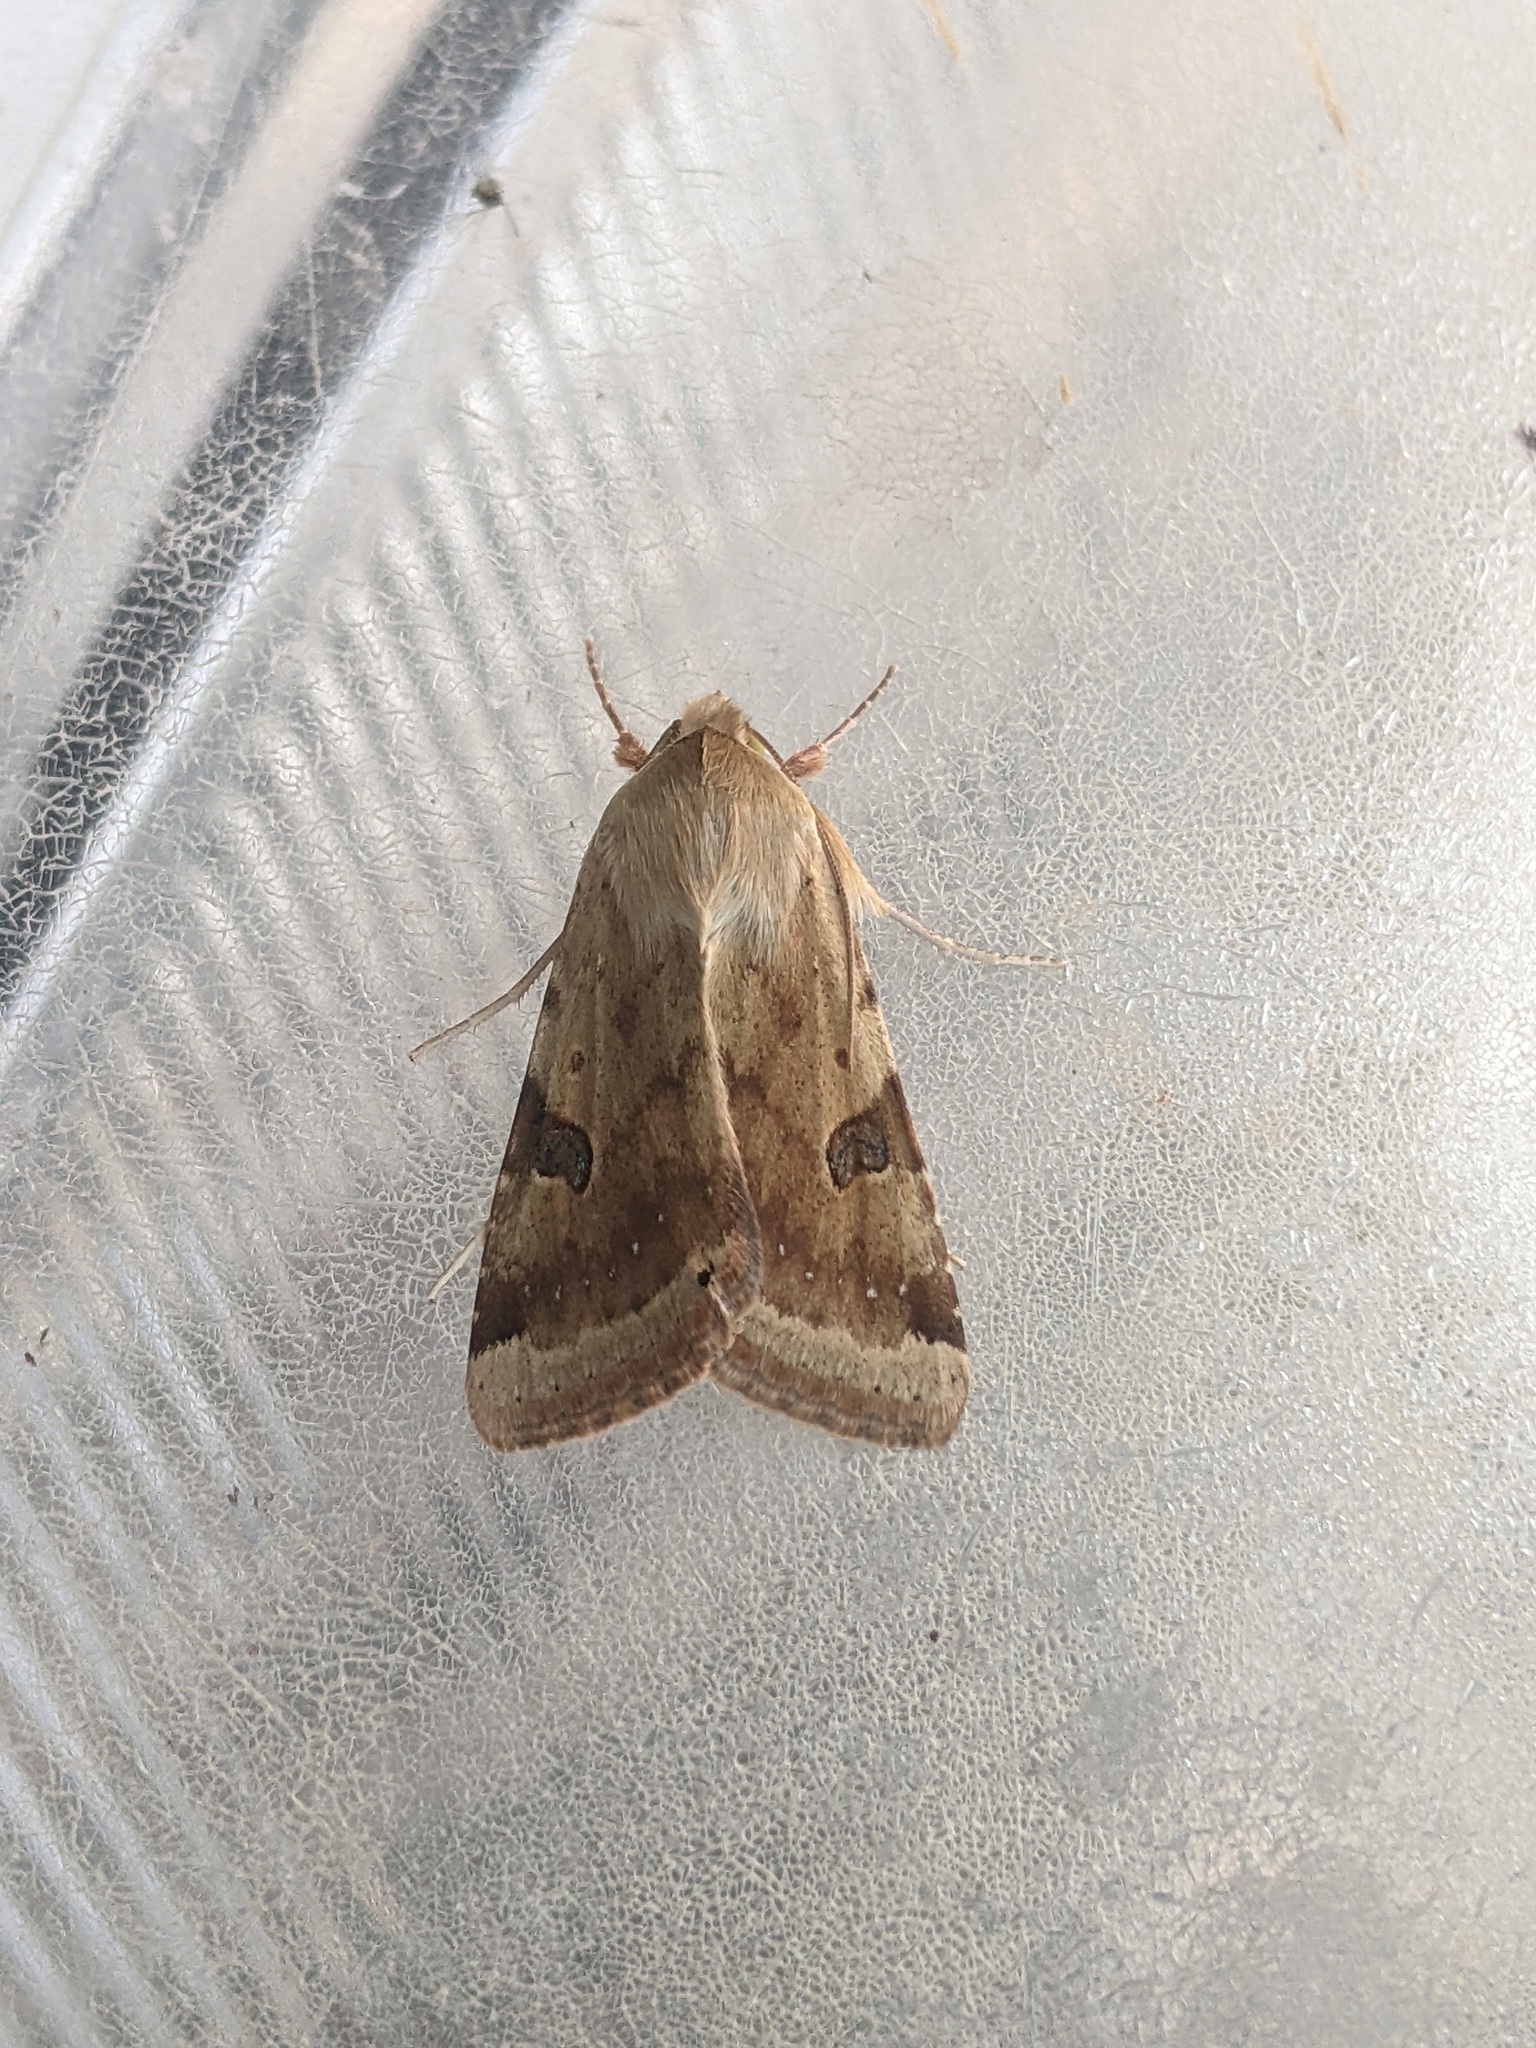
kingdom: Animalia
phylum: Arthropoda
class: Insecta
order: Lepidoptera
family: Noctuidae
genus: Heliothis
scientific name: Heliothis peltigera
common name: Bordered straw
